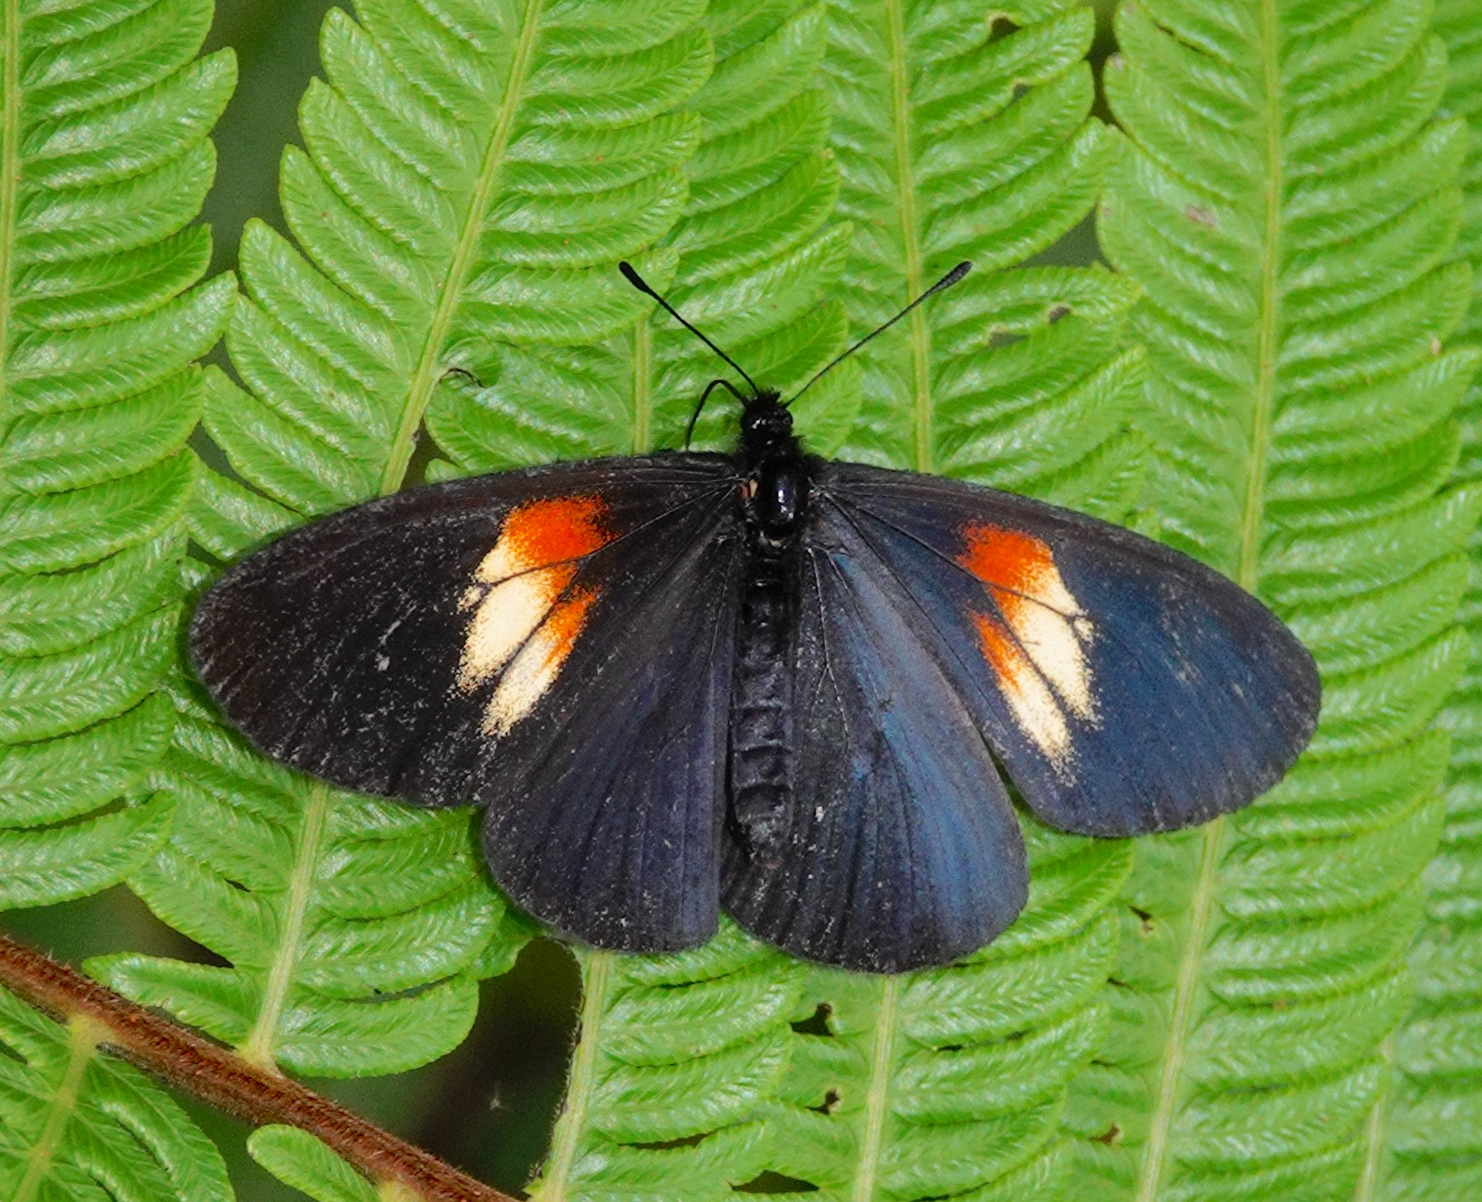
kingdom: Animalia
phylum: Arthropoda
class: Insecta
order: Lepidoptera
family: Nymphalidae
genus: Acraea
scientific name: Acraea Altinote ozomene
